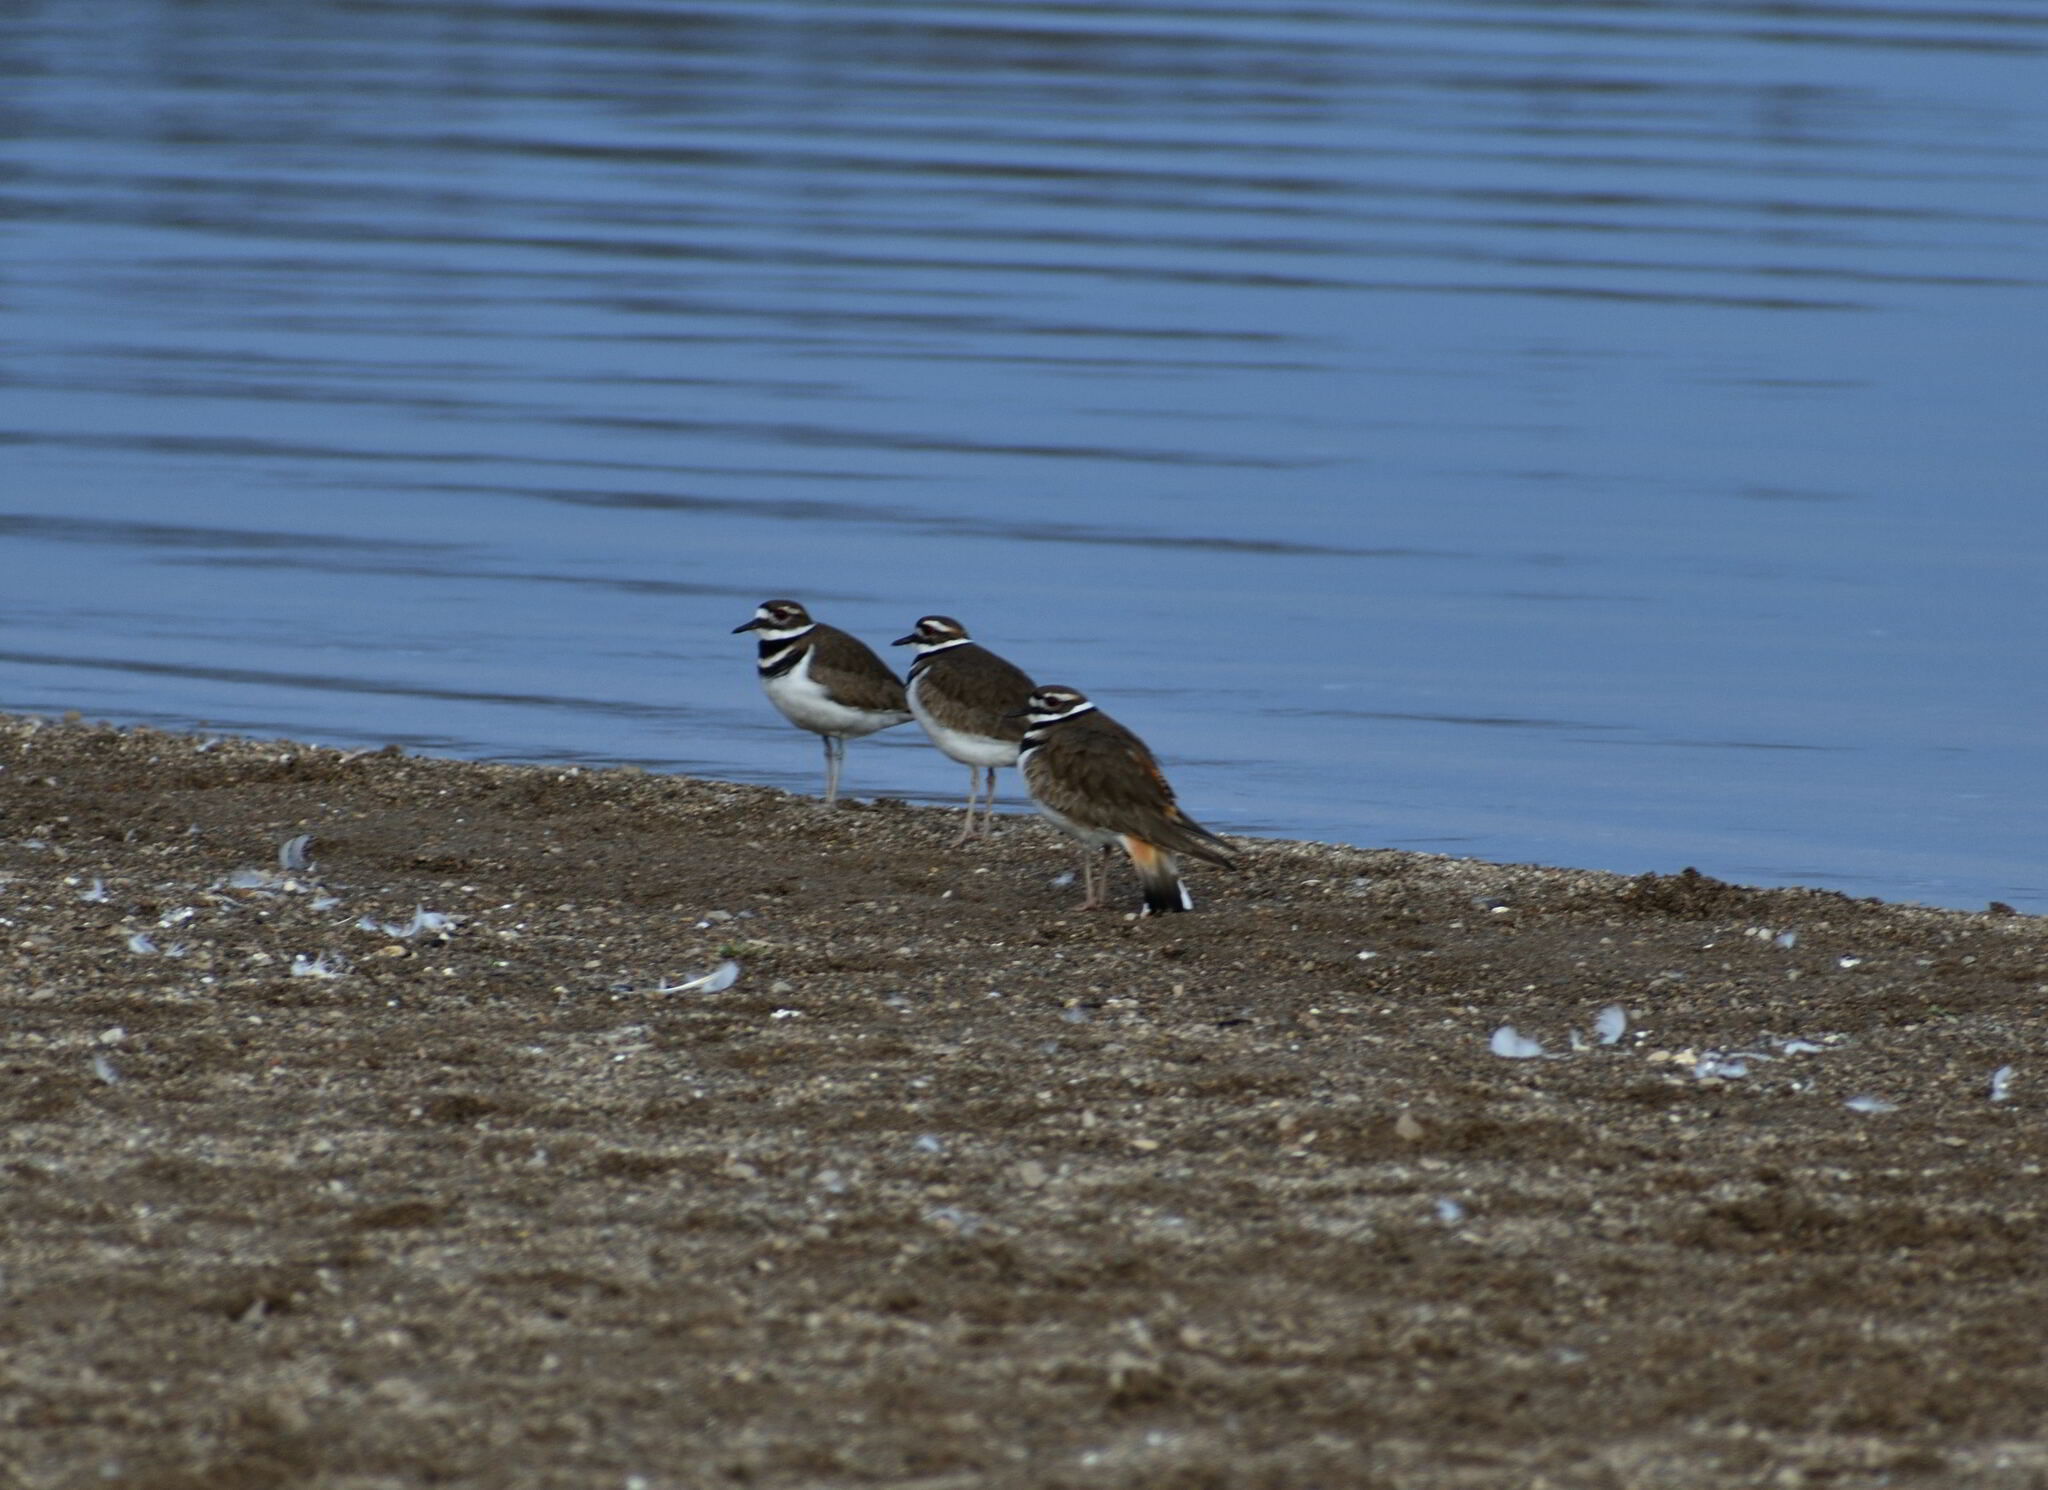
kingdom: Animalia
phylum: Chordata
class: Aves
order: Charadriiformes
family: Charadriidae
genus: Charadrius
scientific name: Charadrius vociferus
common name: Killdeer
